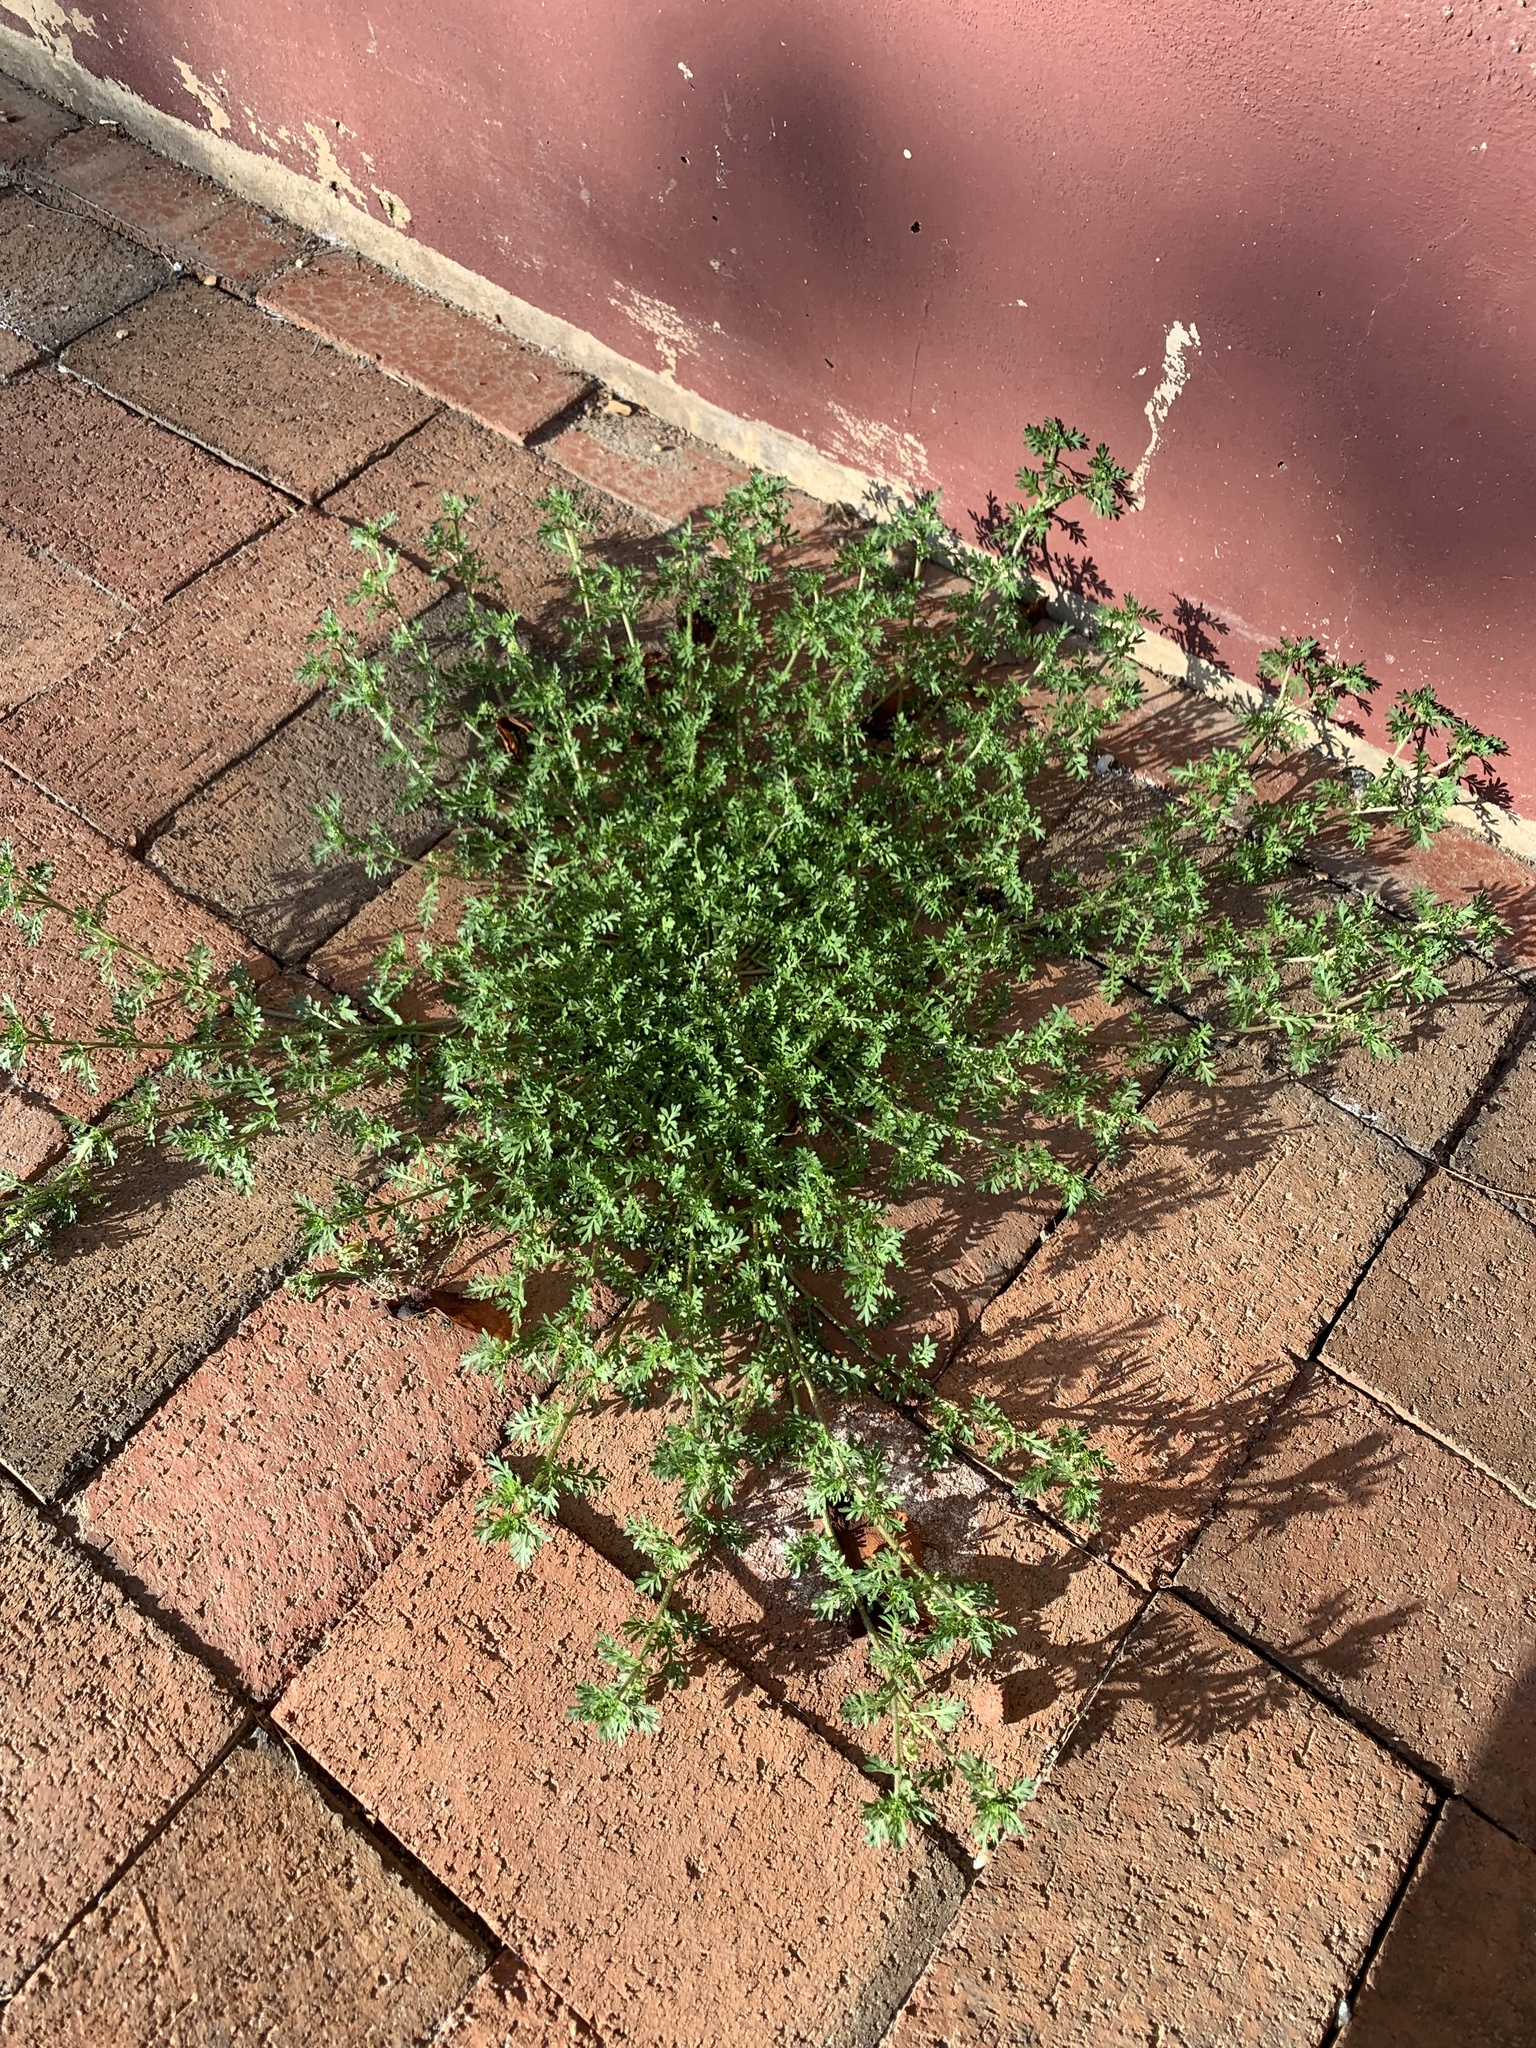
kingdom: Plantae
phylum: Tracheophyta
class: Magnoliopsida
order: Brassicales
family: Brassicaceae
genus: Lepidium
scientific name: Lepidium didymum
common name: Lesser swinecress
